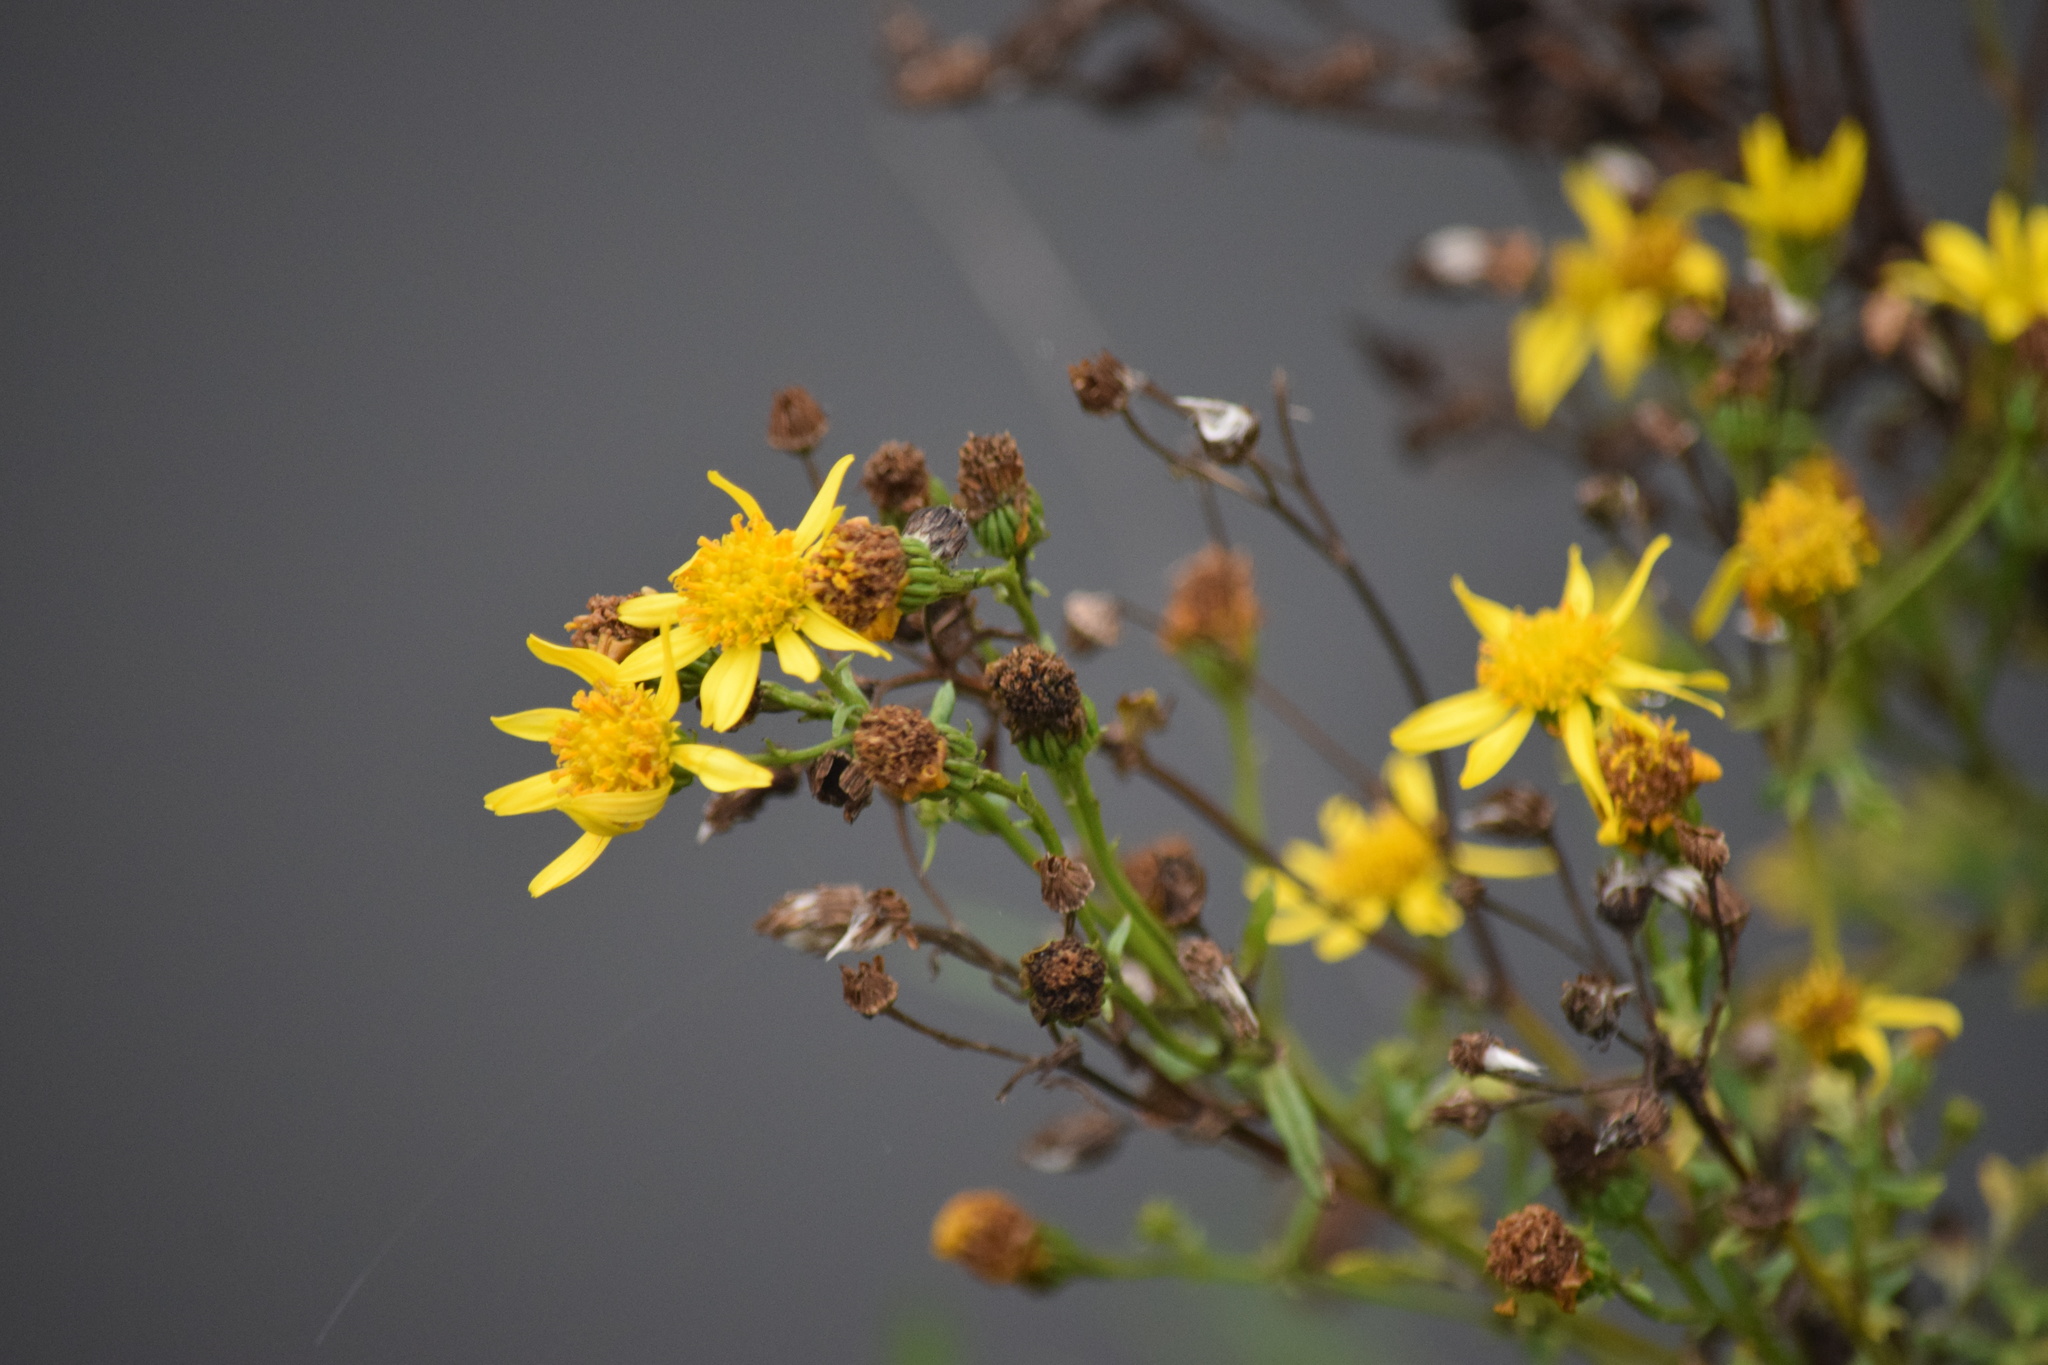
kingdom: Plantae
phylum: Tracheophyta
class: Magnoliopsida
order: Asterales
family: Asteraceae
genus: Jacobaea
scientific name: Jacobaea vulgaris
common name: Stinking willie
